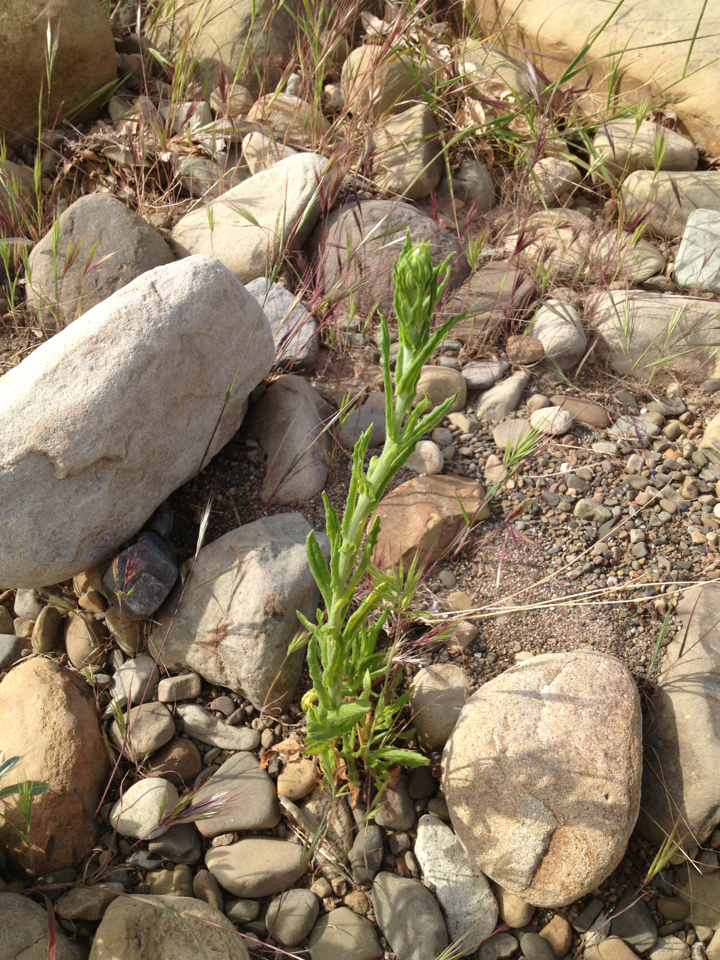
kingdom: Plantae
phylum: Tracheophyta
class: Magnoliopsida
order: Asterales
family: Asteraceae
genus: Pseudognaphalium
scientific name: Pseudognaphalium californicum
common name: California rabbit-tobacco
